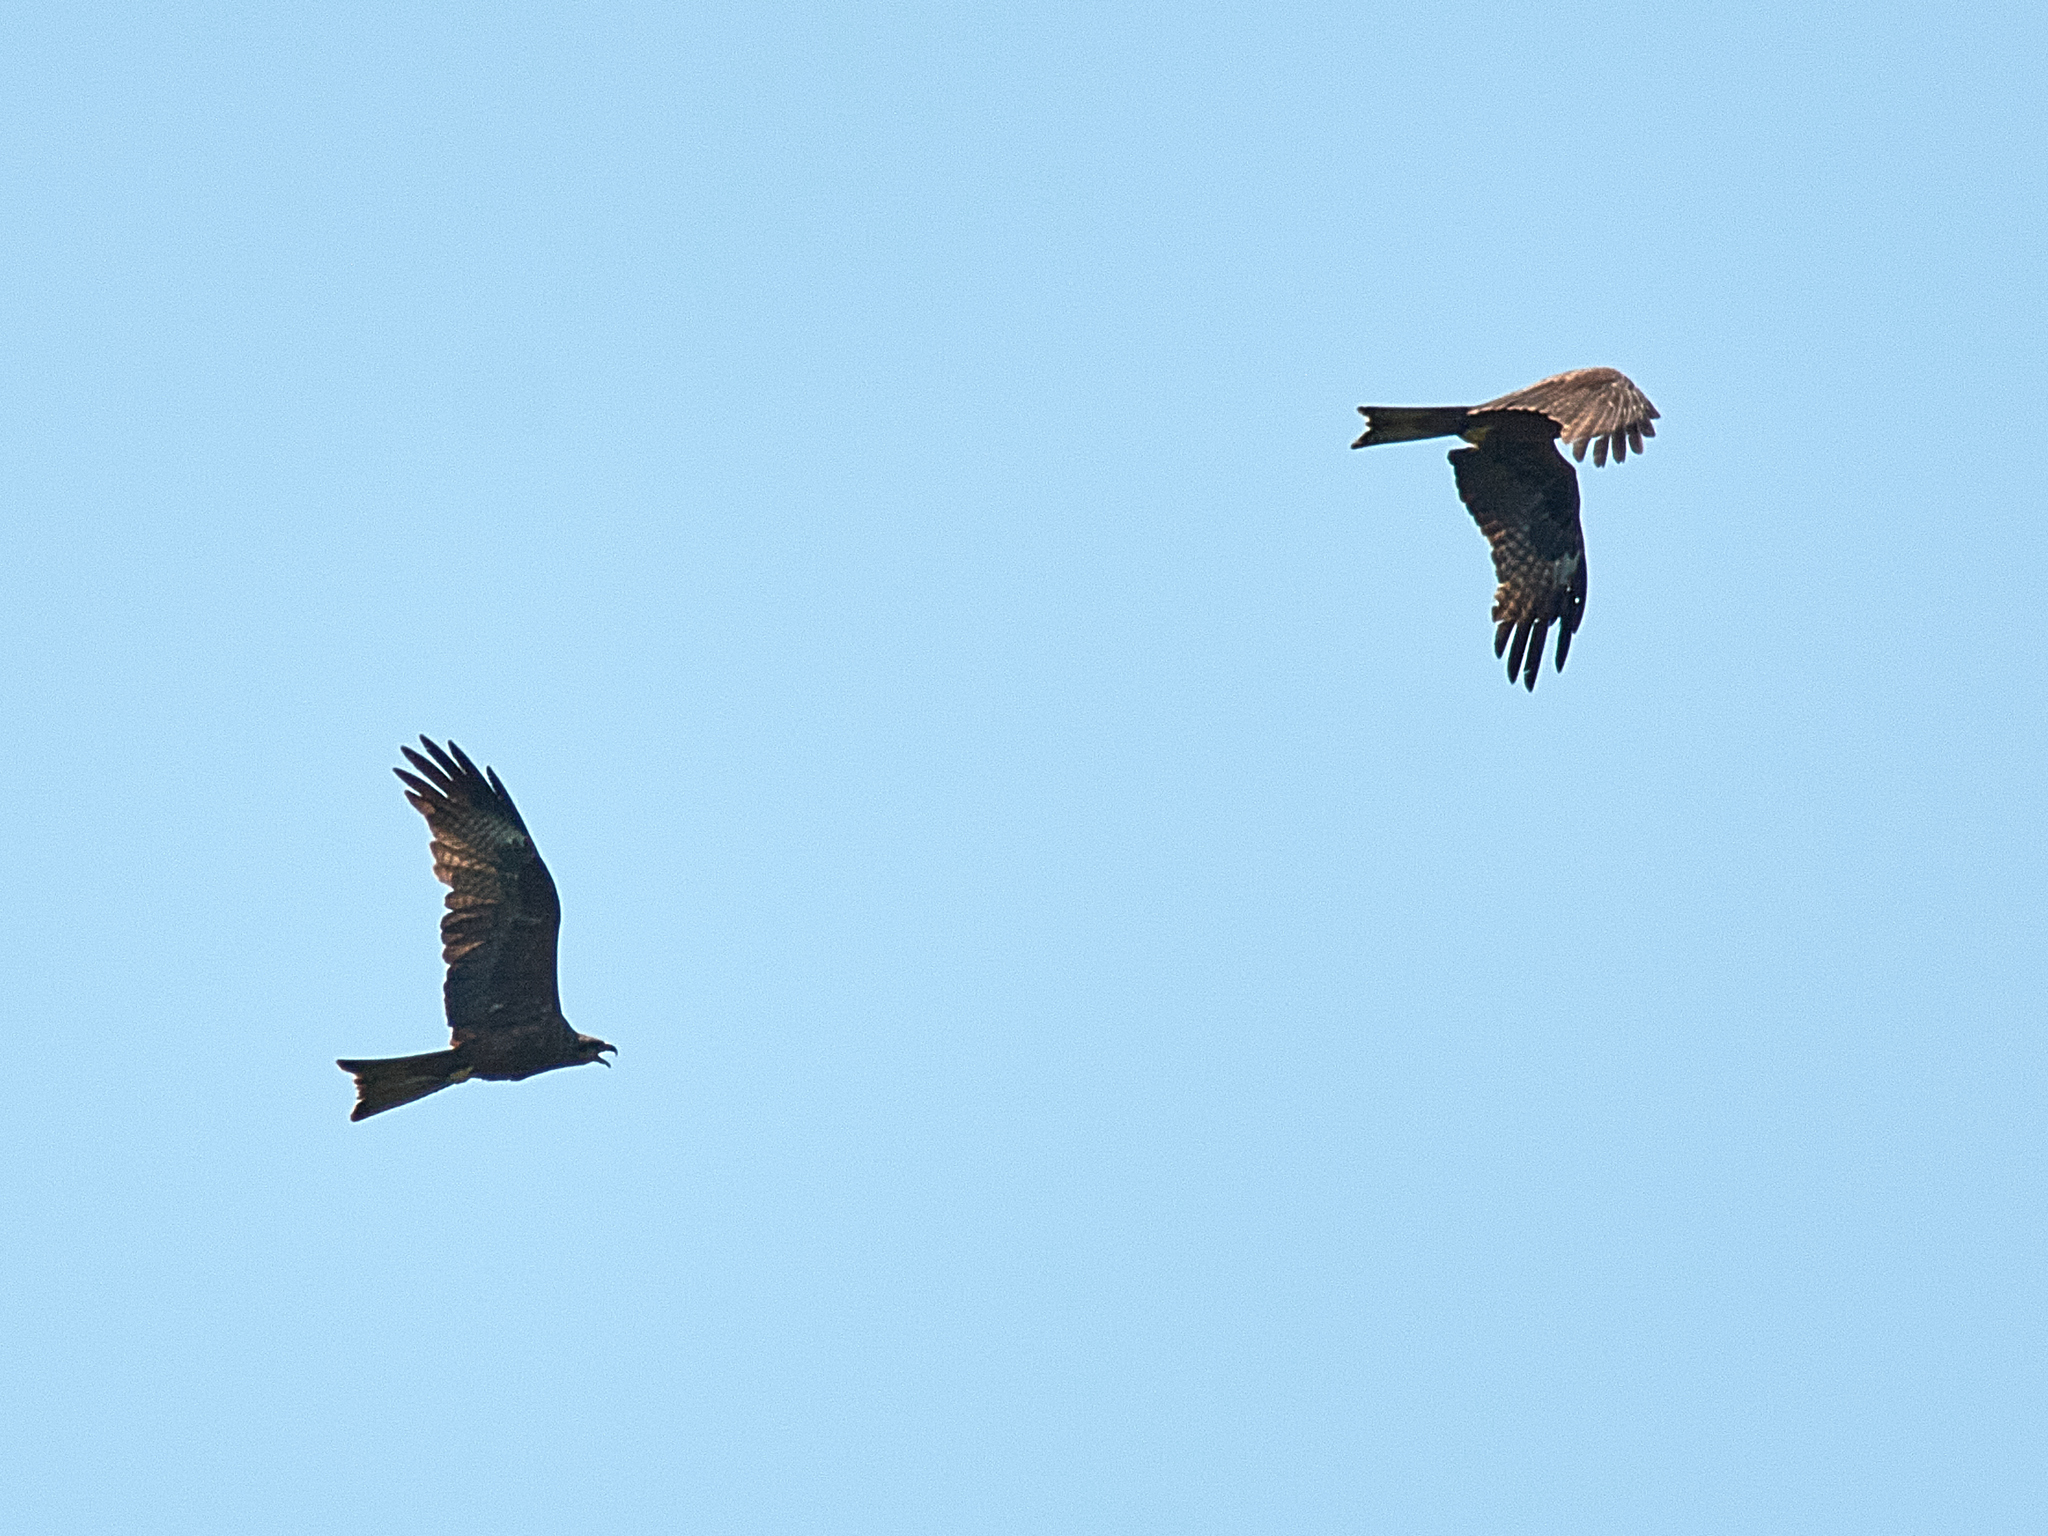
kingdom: Animalia
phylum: Chordata
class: Aves
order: Accipitriformes
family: Accipitridae
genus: Milvus
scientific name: Milvus migrans
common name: Black kite
